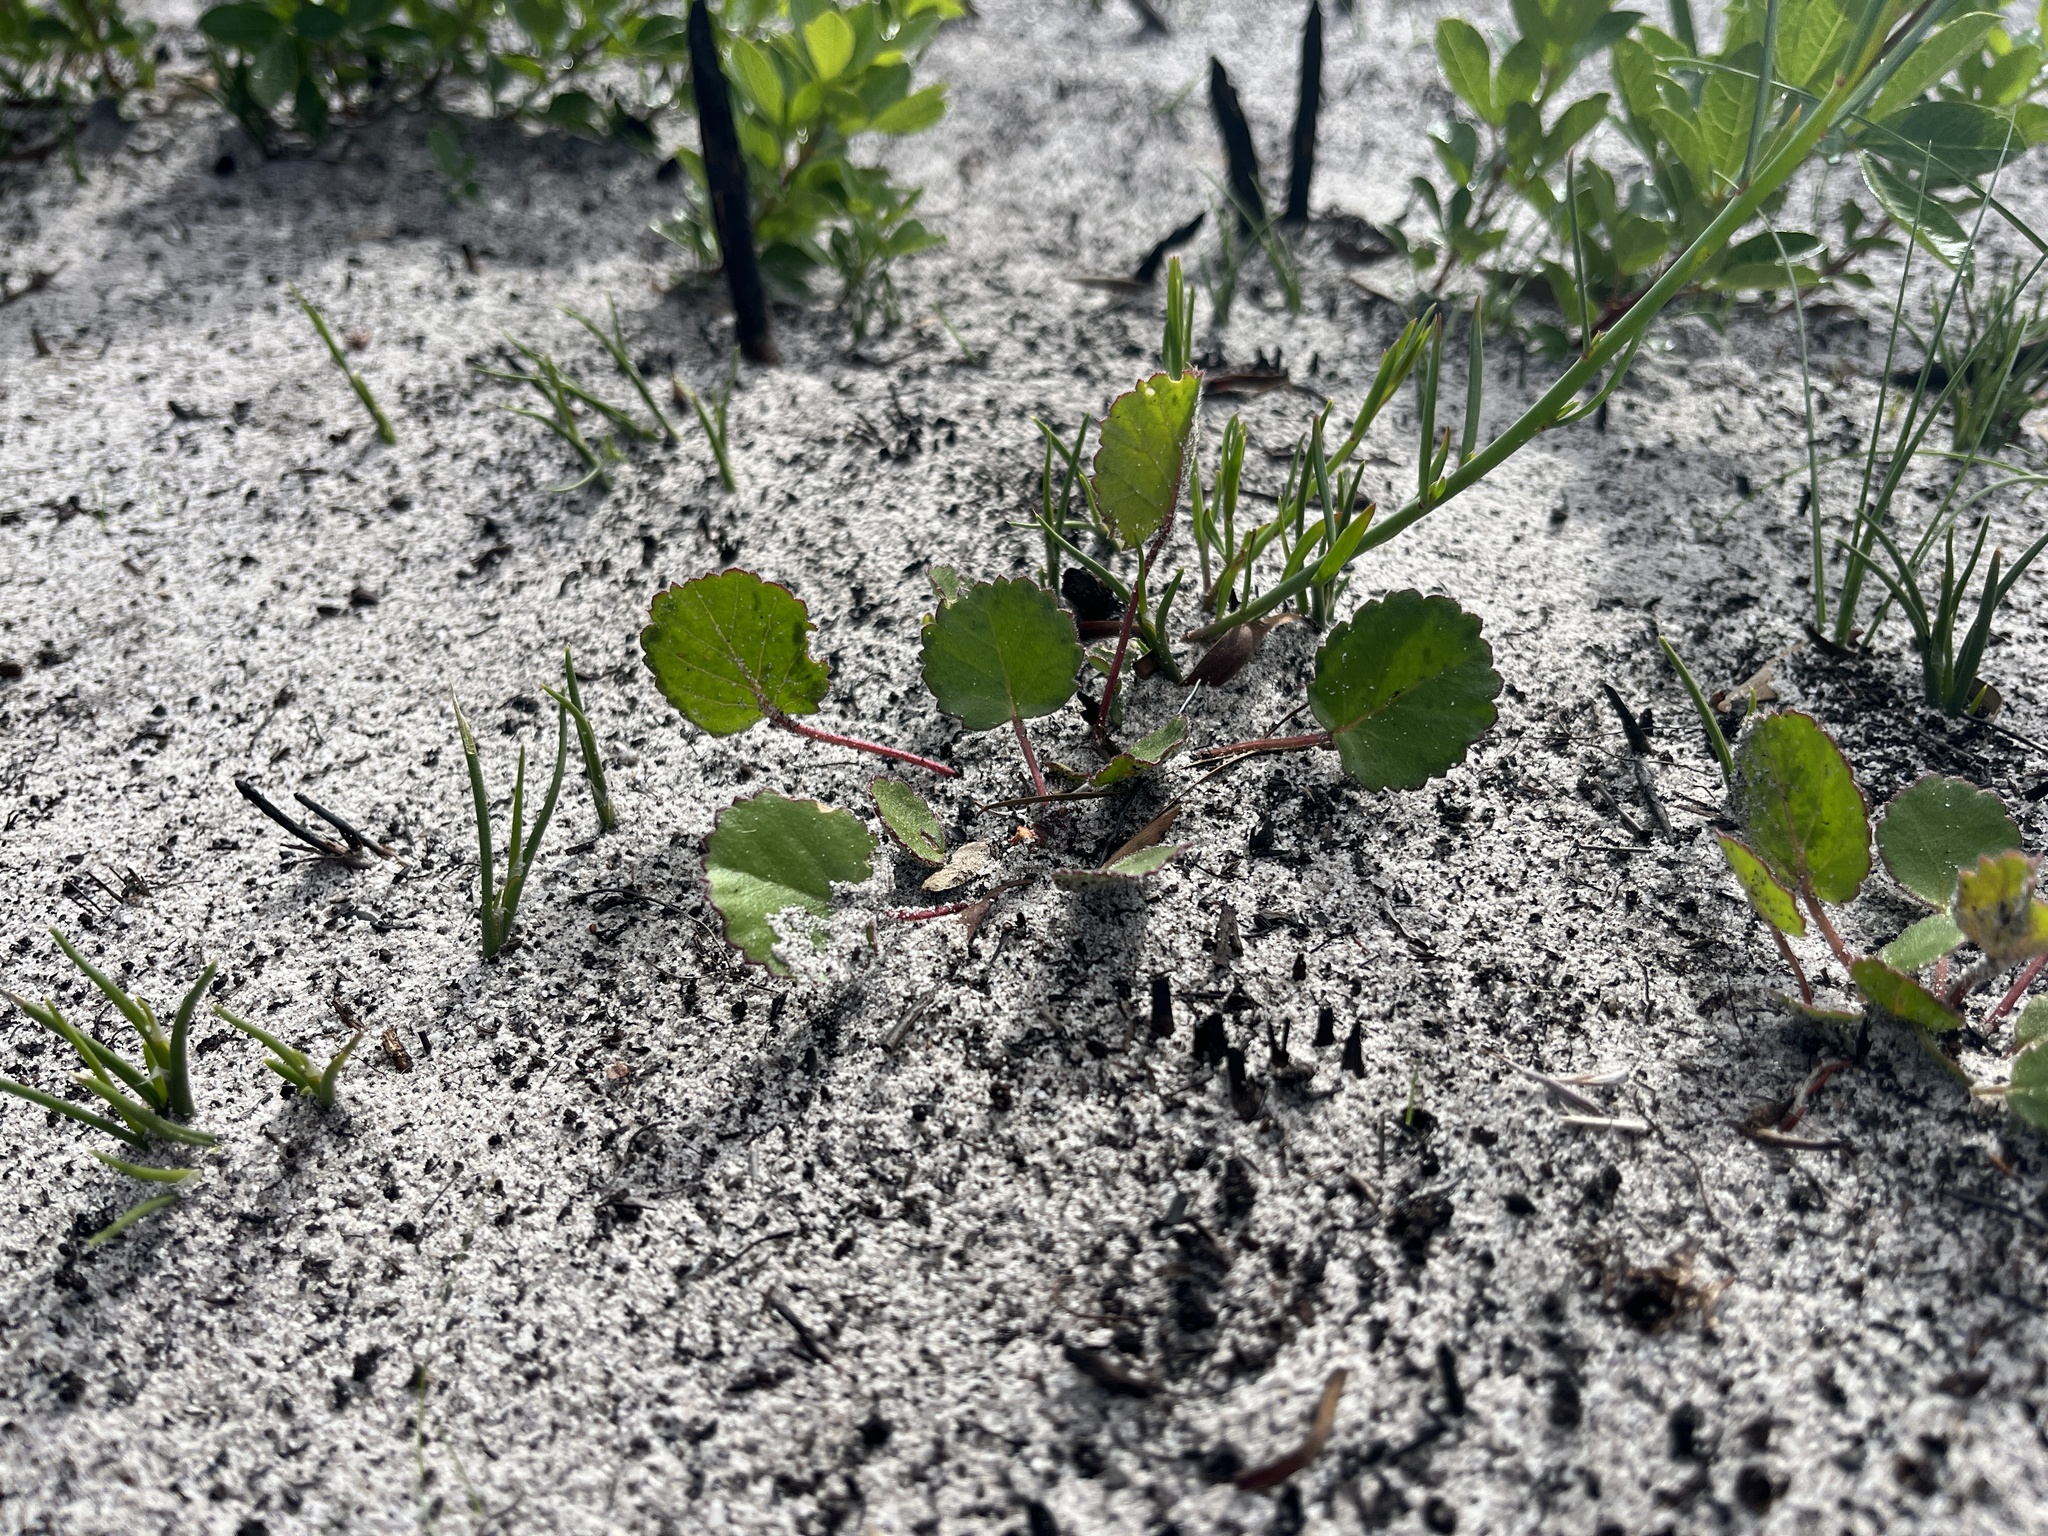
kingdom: Plantae
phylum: Tracheophyta
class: Magnoliopsida
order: Geraniales
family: Geraniaceae
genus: Pelargonium
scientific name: Pelargonium elegans
